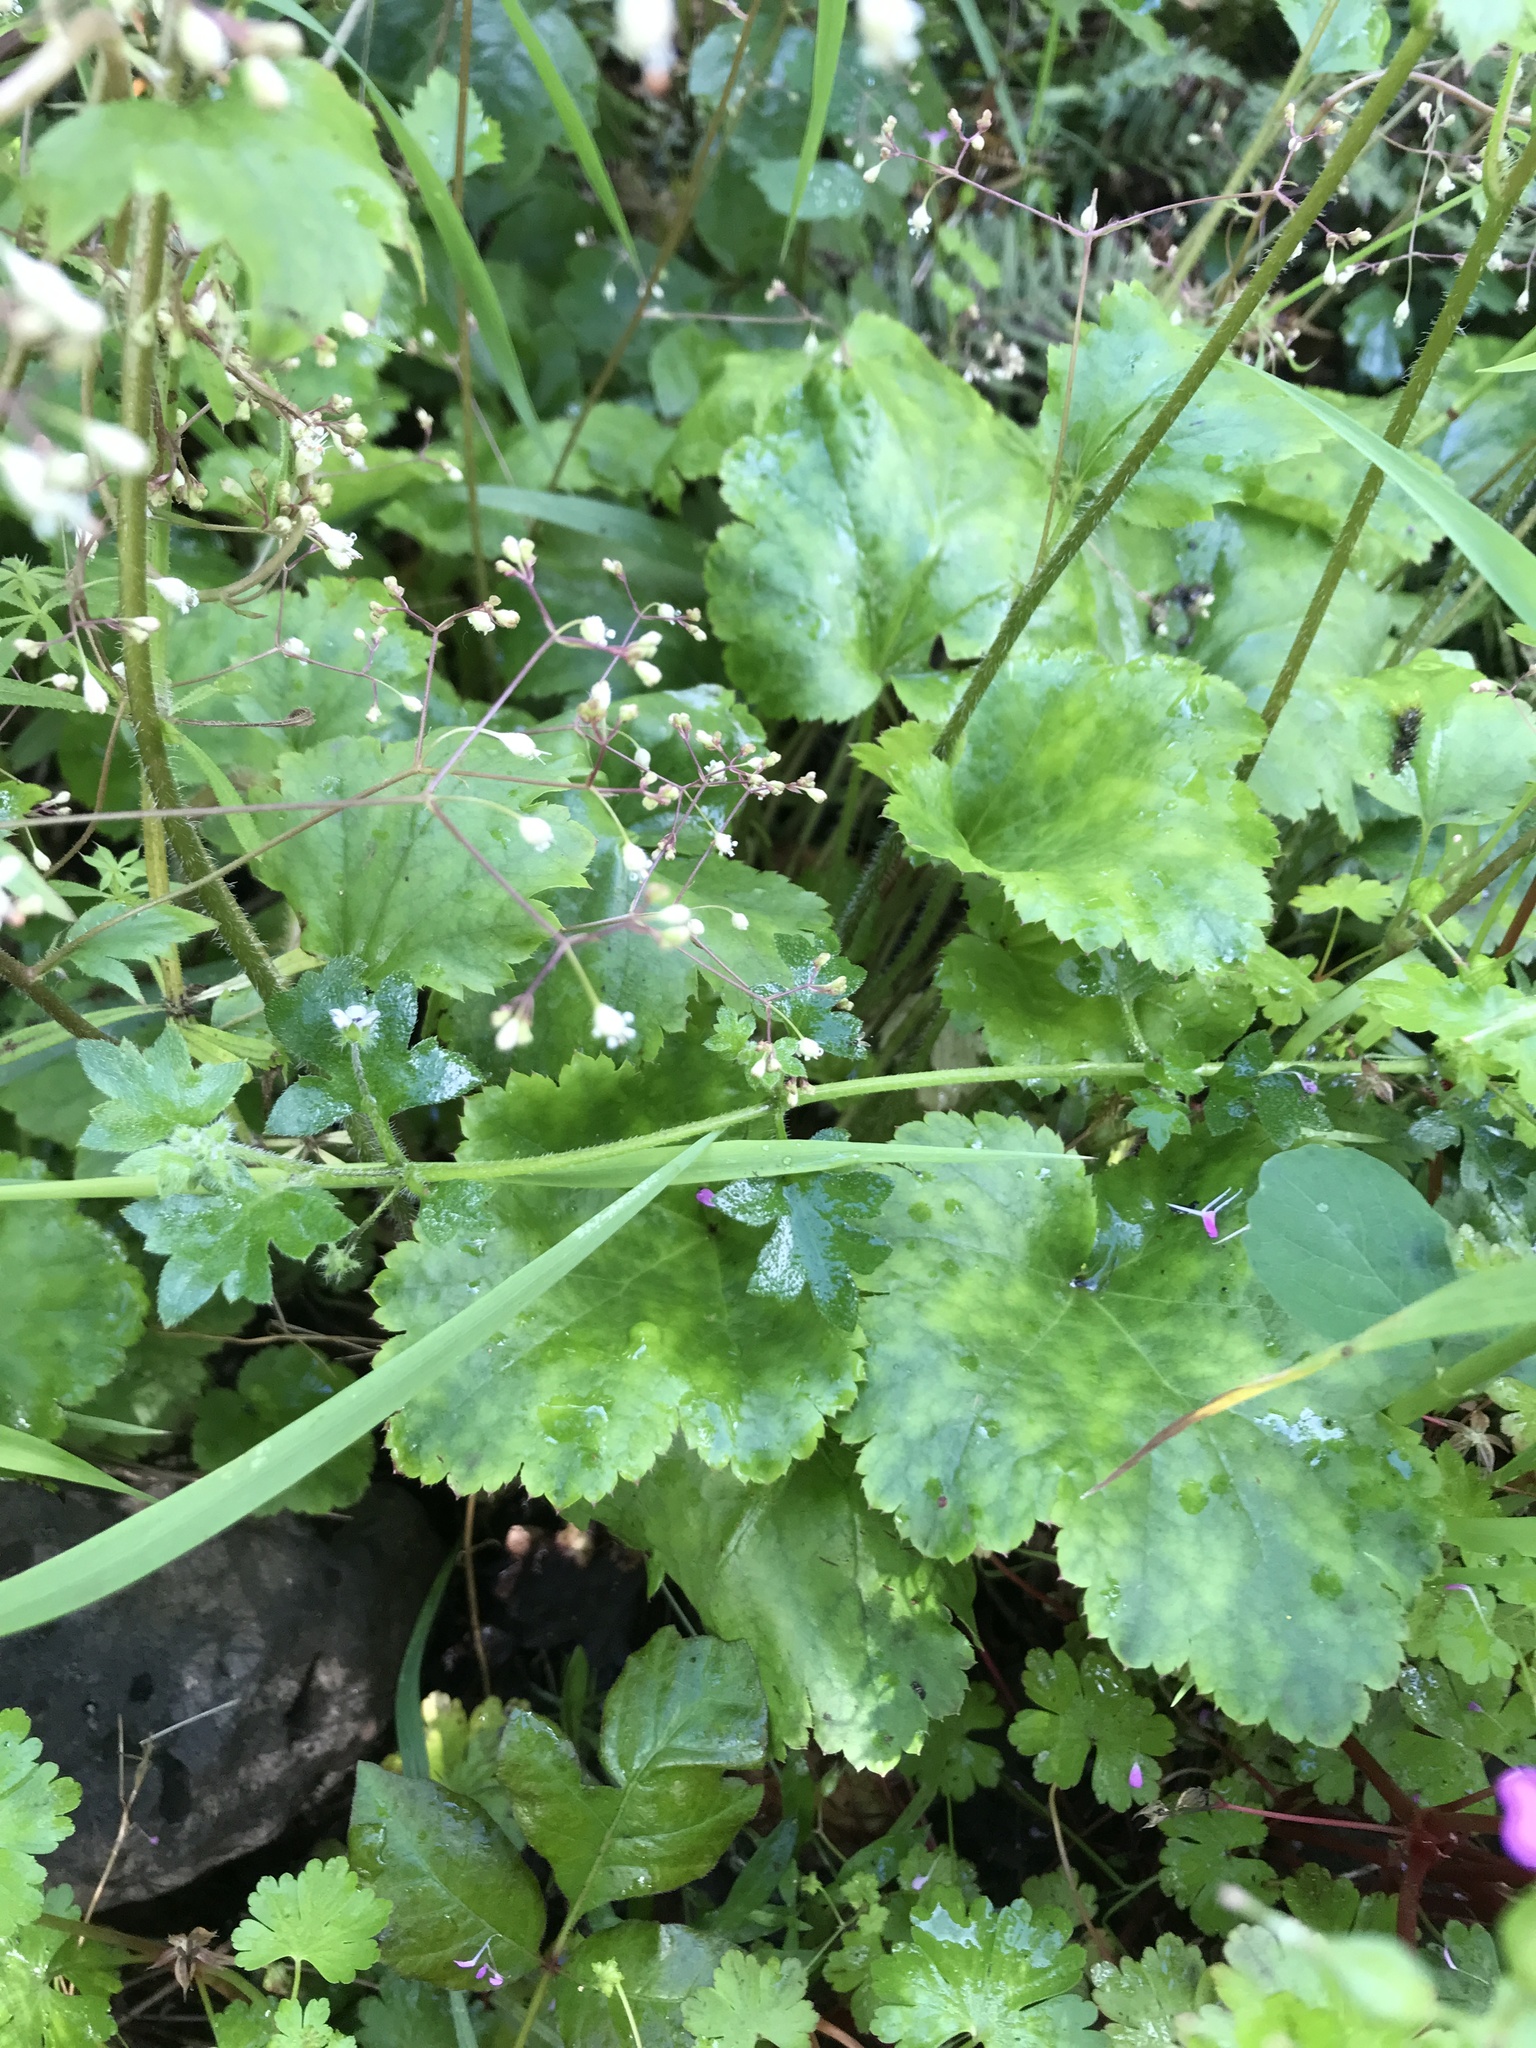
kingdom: Plantae
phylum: Tracheophyta
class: Magnoliopsida
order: Saxifragales
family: Saxifragaceae
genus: Heuchera
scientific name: Heuchera micrantha
